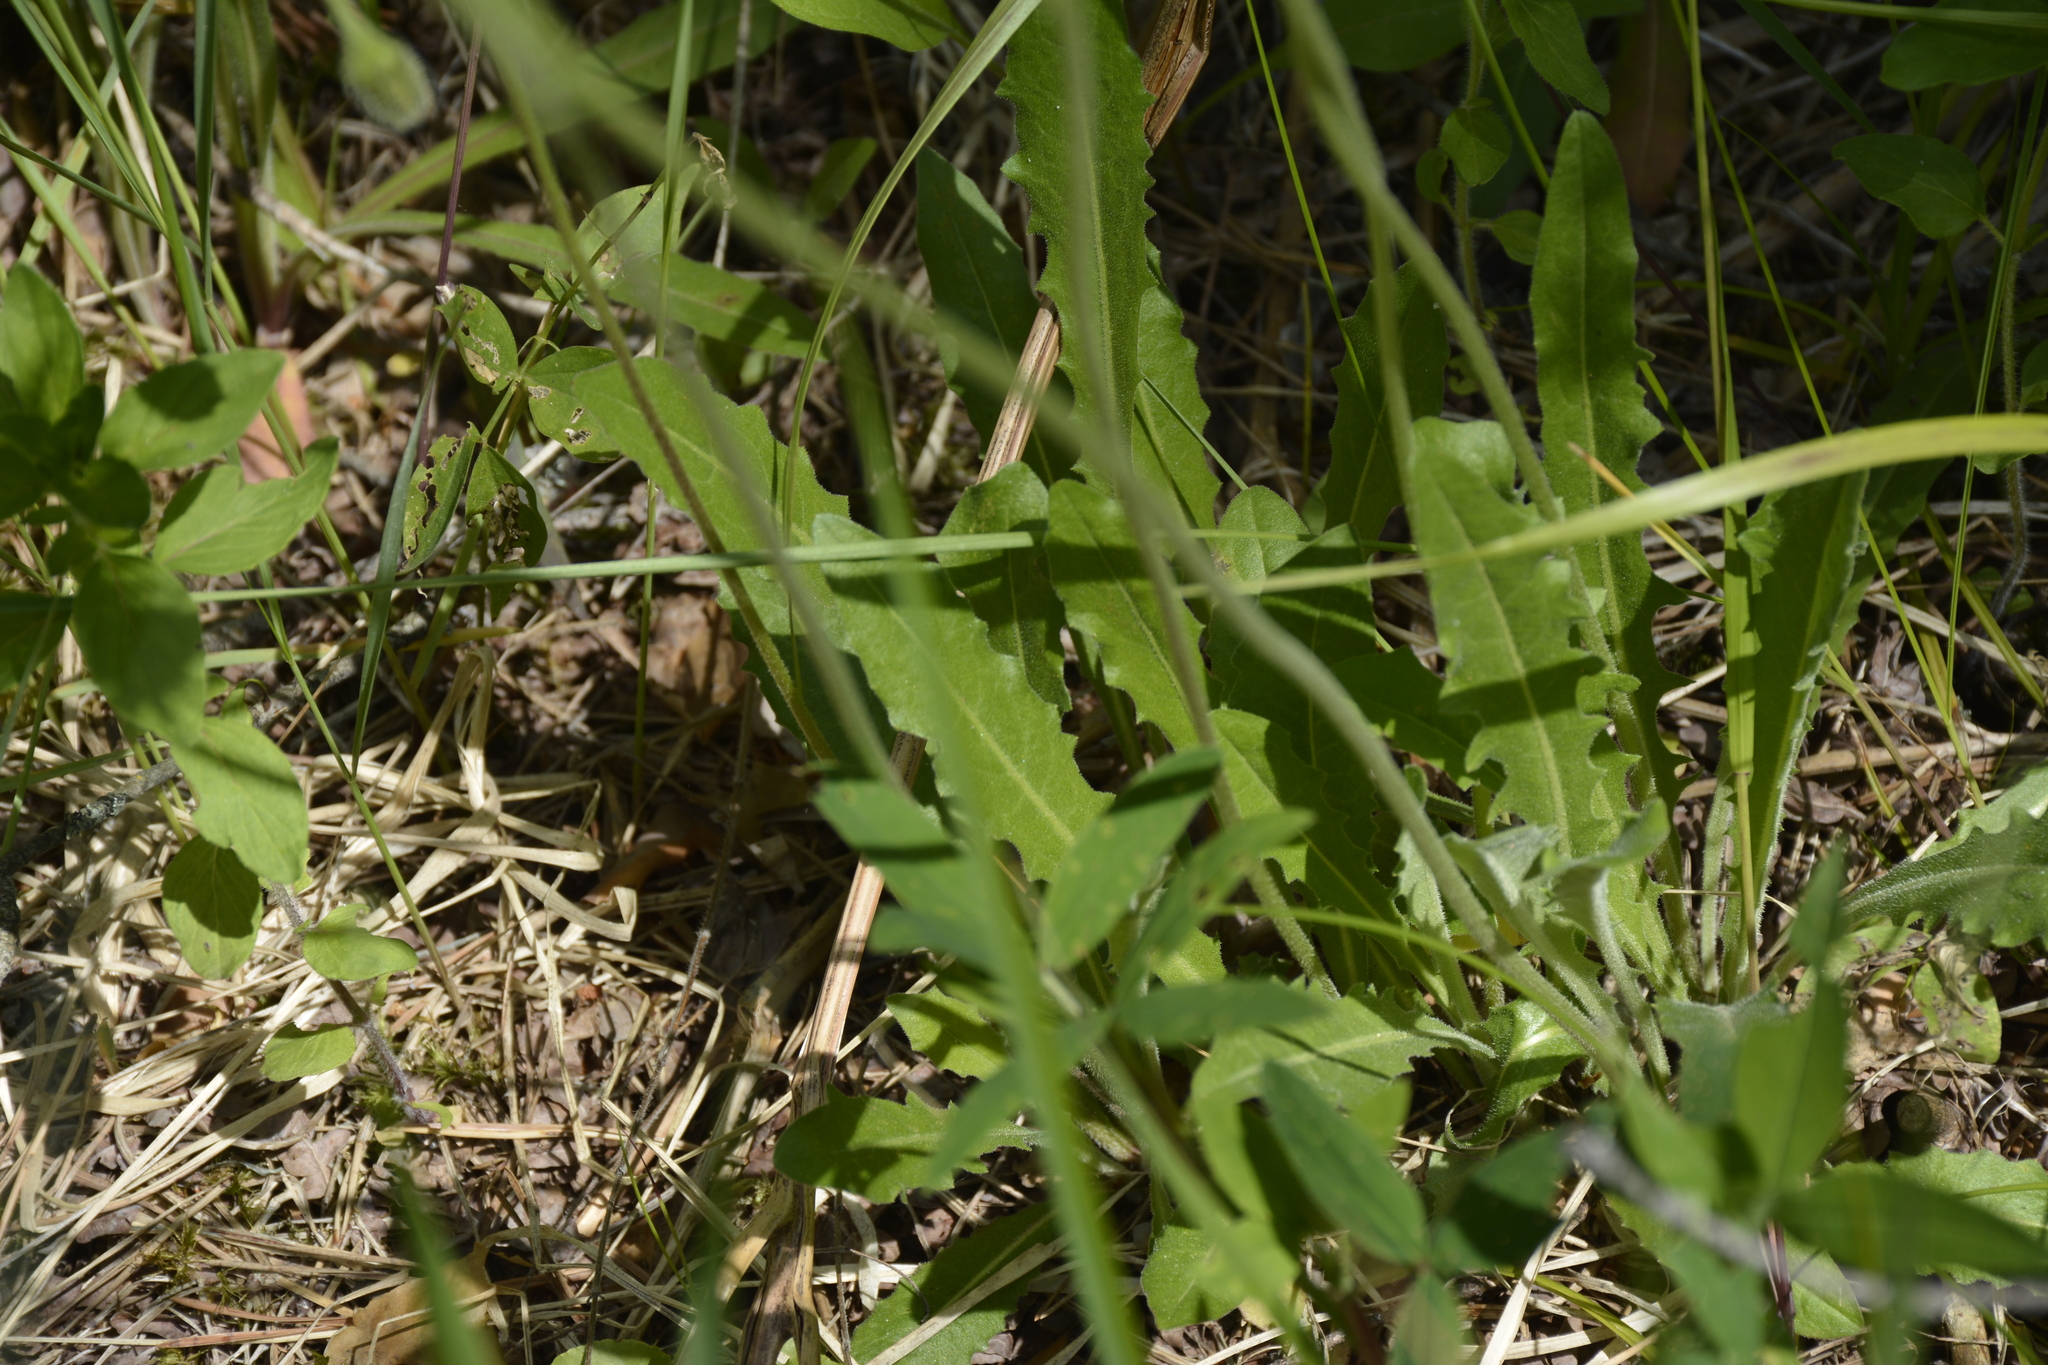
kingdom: Plantae
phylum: Tracheophyta
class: Magnoliopsida
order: Asterales
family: Asteraceae
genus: Leontodon
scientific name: Leontodon hispidus
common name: Rough hawkbit
